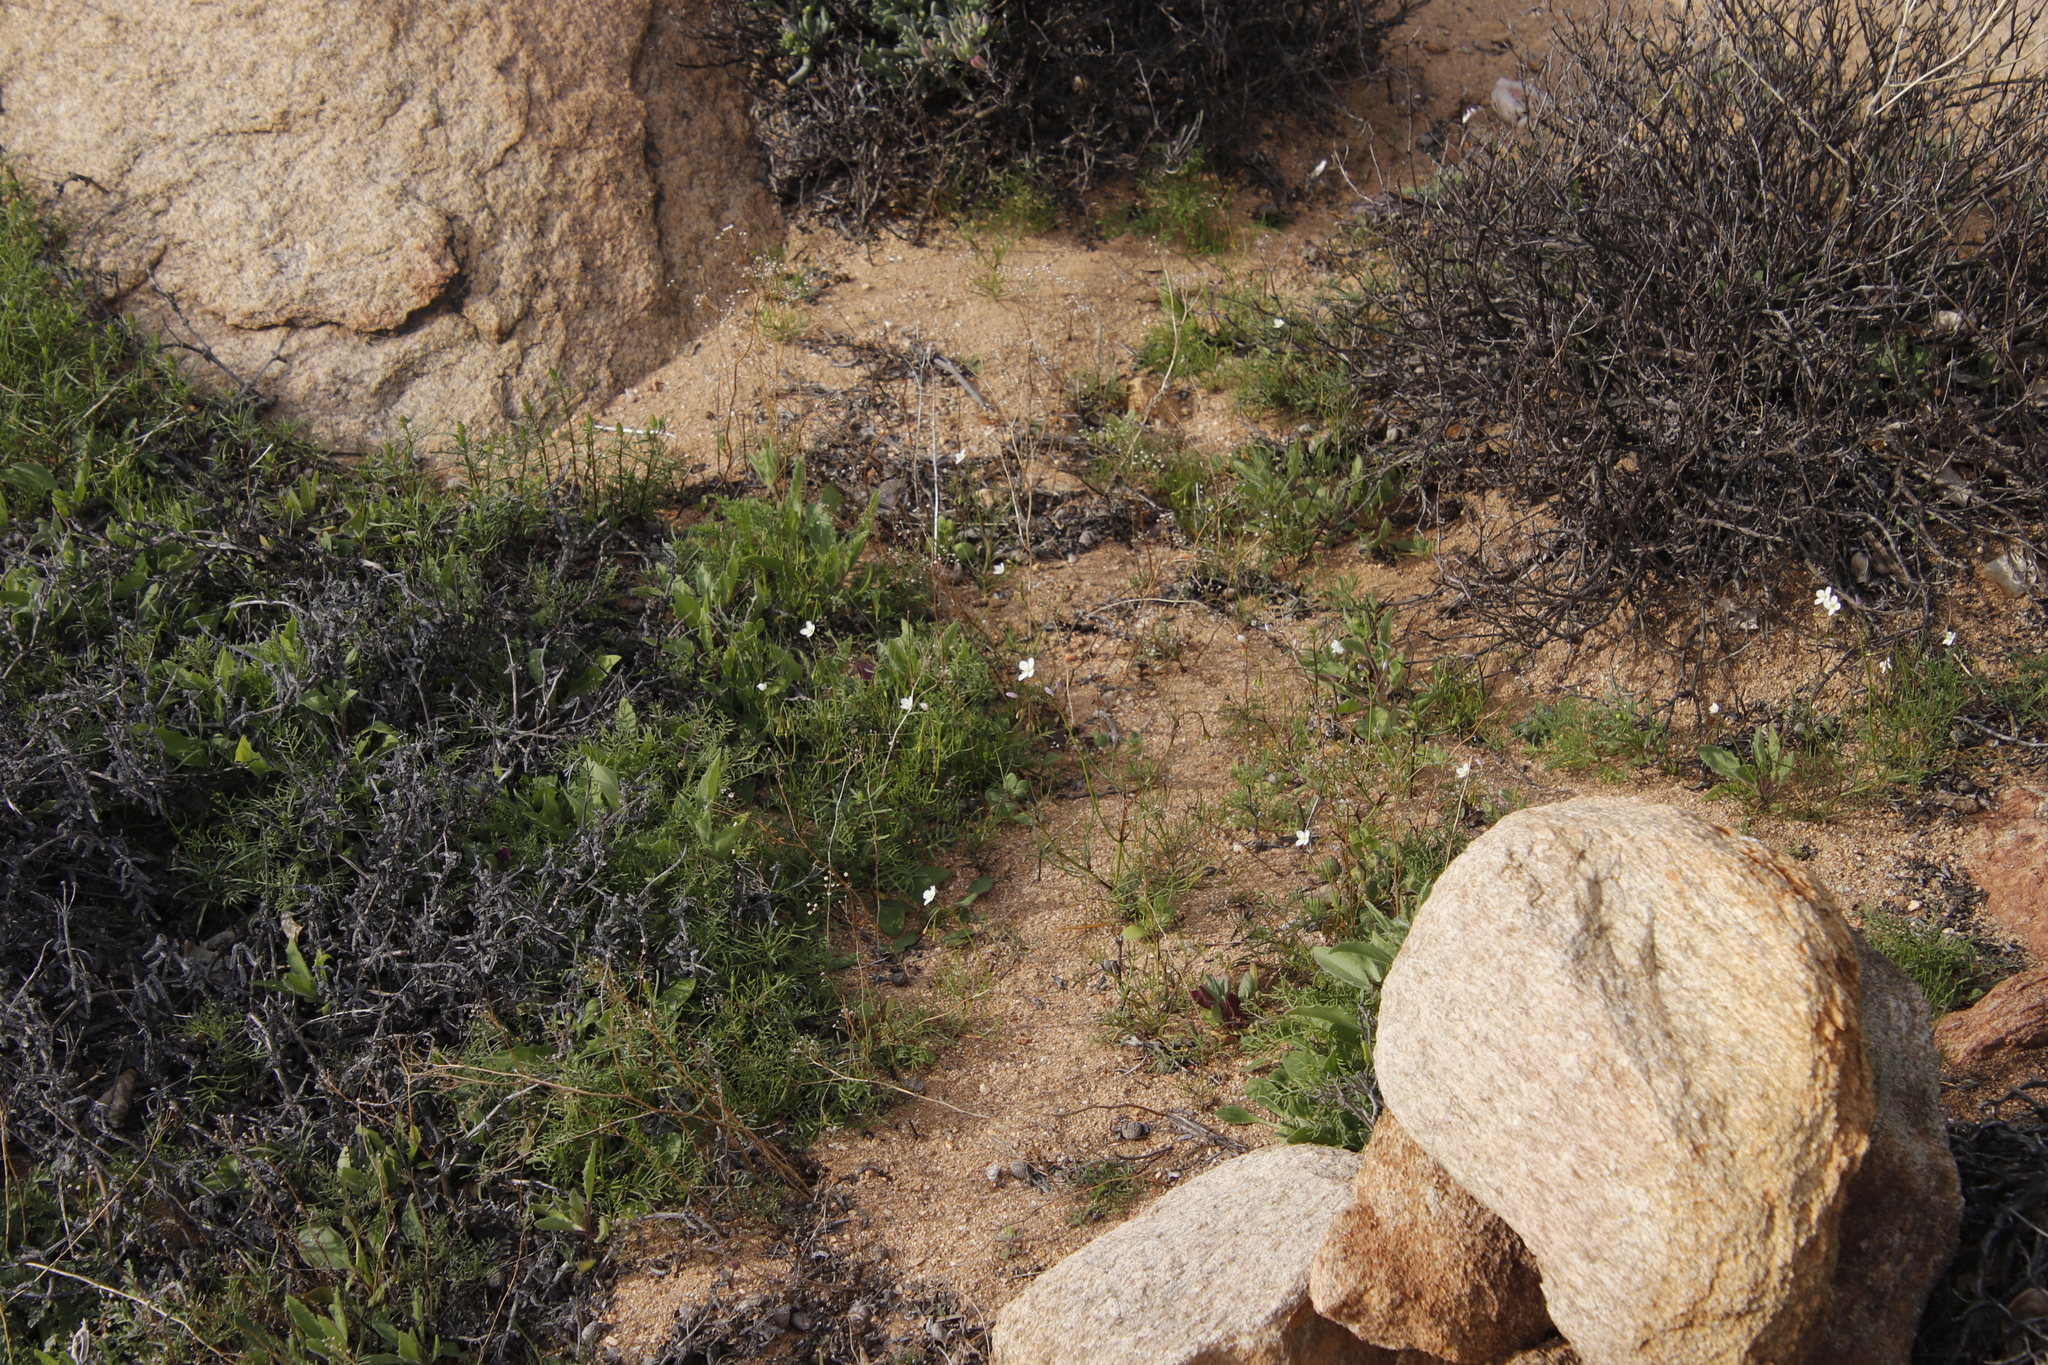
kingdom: Plantae
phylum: Tracheophyta
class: Magnoliopsida
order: Brassicales
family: Brassicaceae
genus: Heliophila
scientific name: Heliophila variabilis
